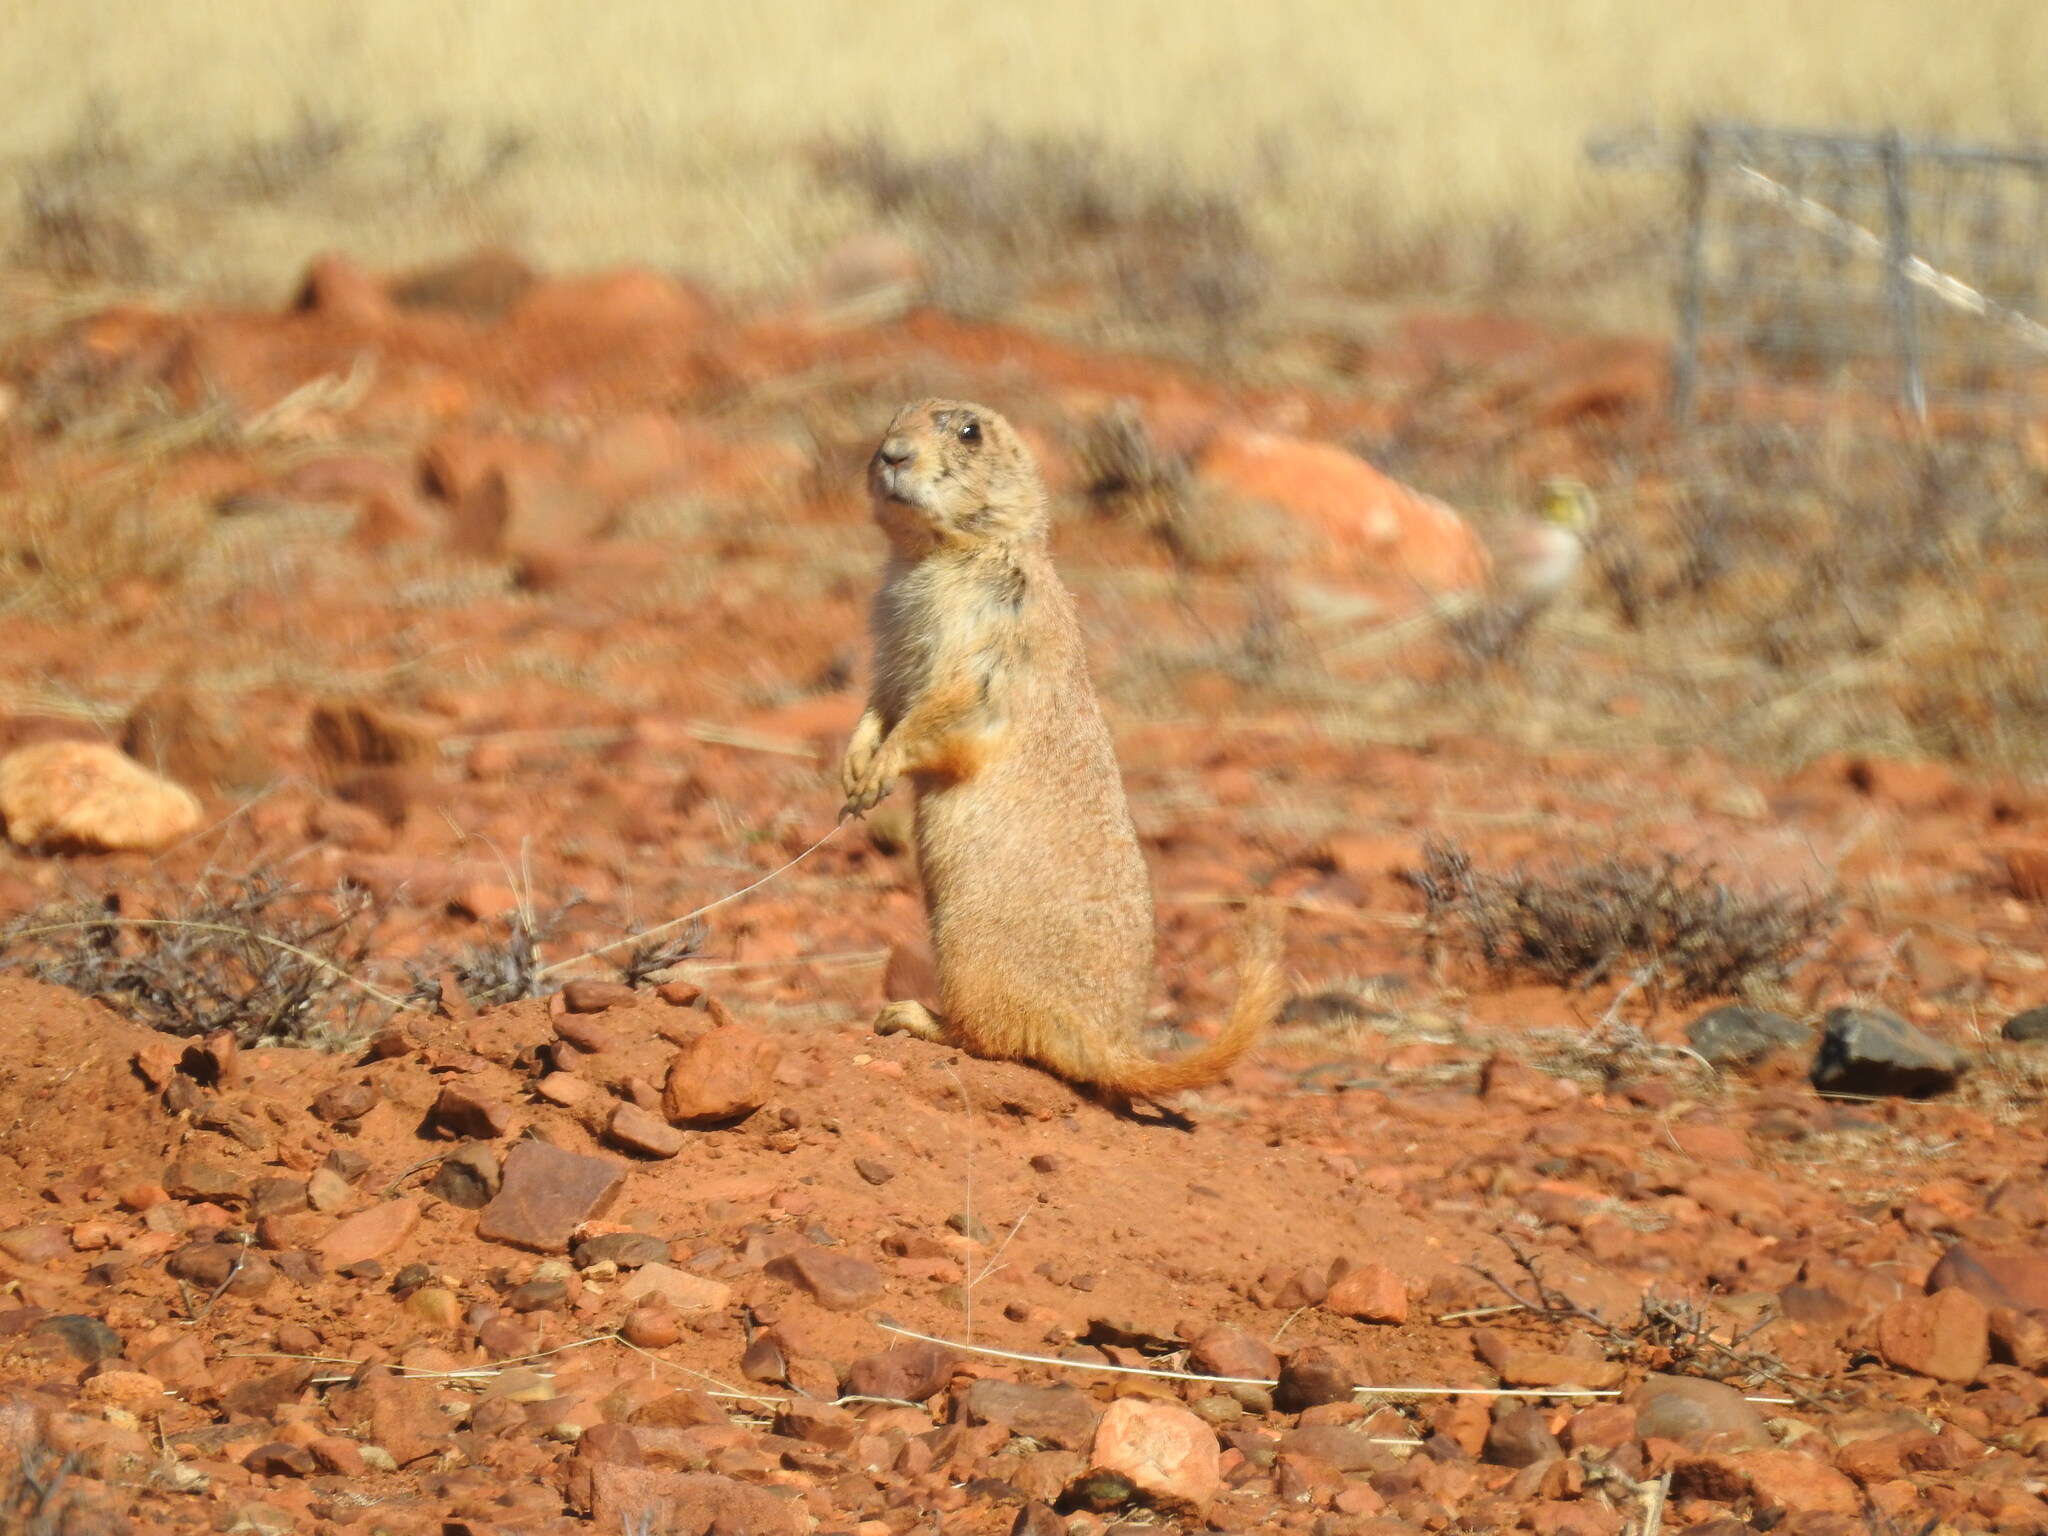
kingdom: Animalia
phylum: Chordata
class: Mammalia
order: Rodentia
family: Sciuridae
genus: Cynomys
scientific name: Cynomys ludovicianus
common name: Black-tailed prairie dog
